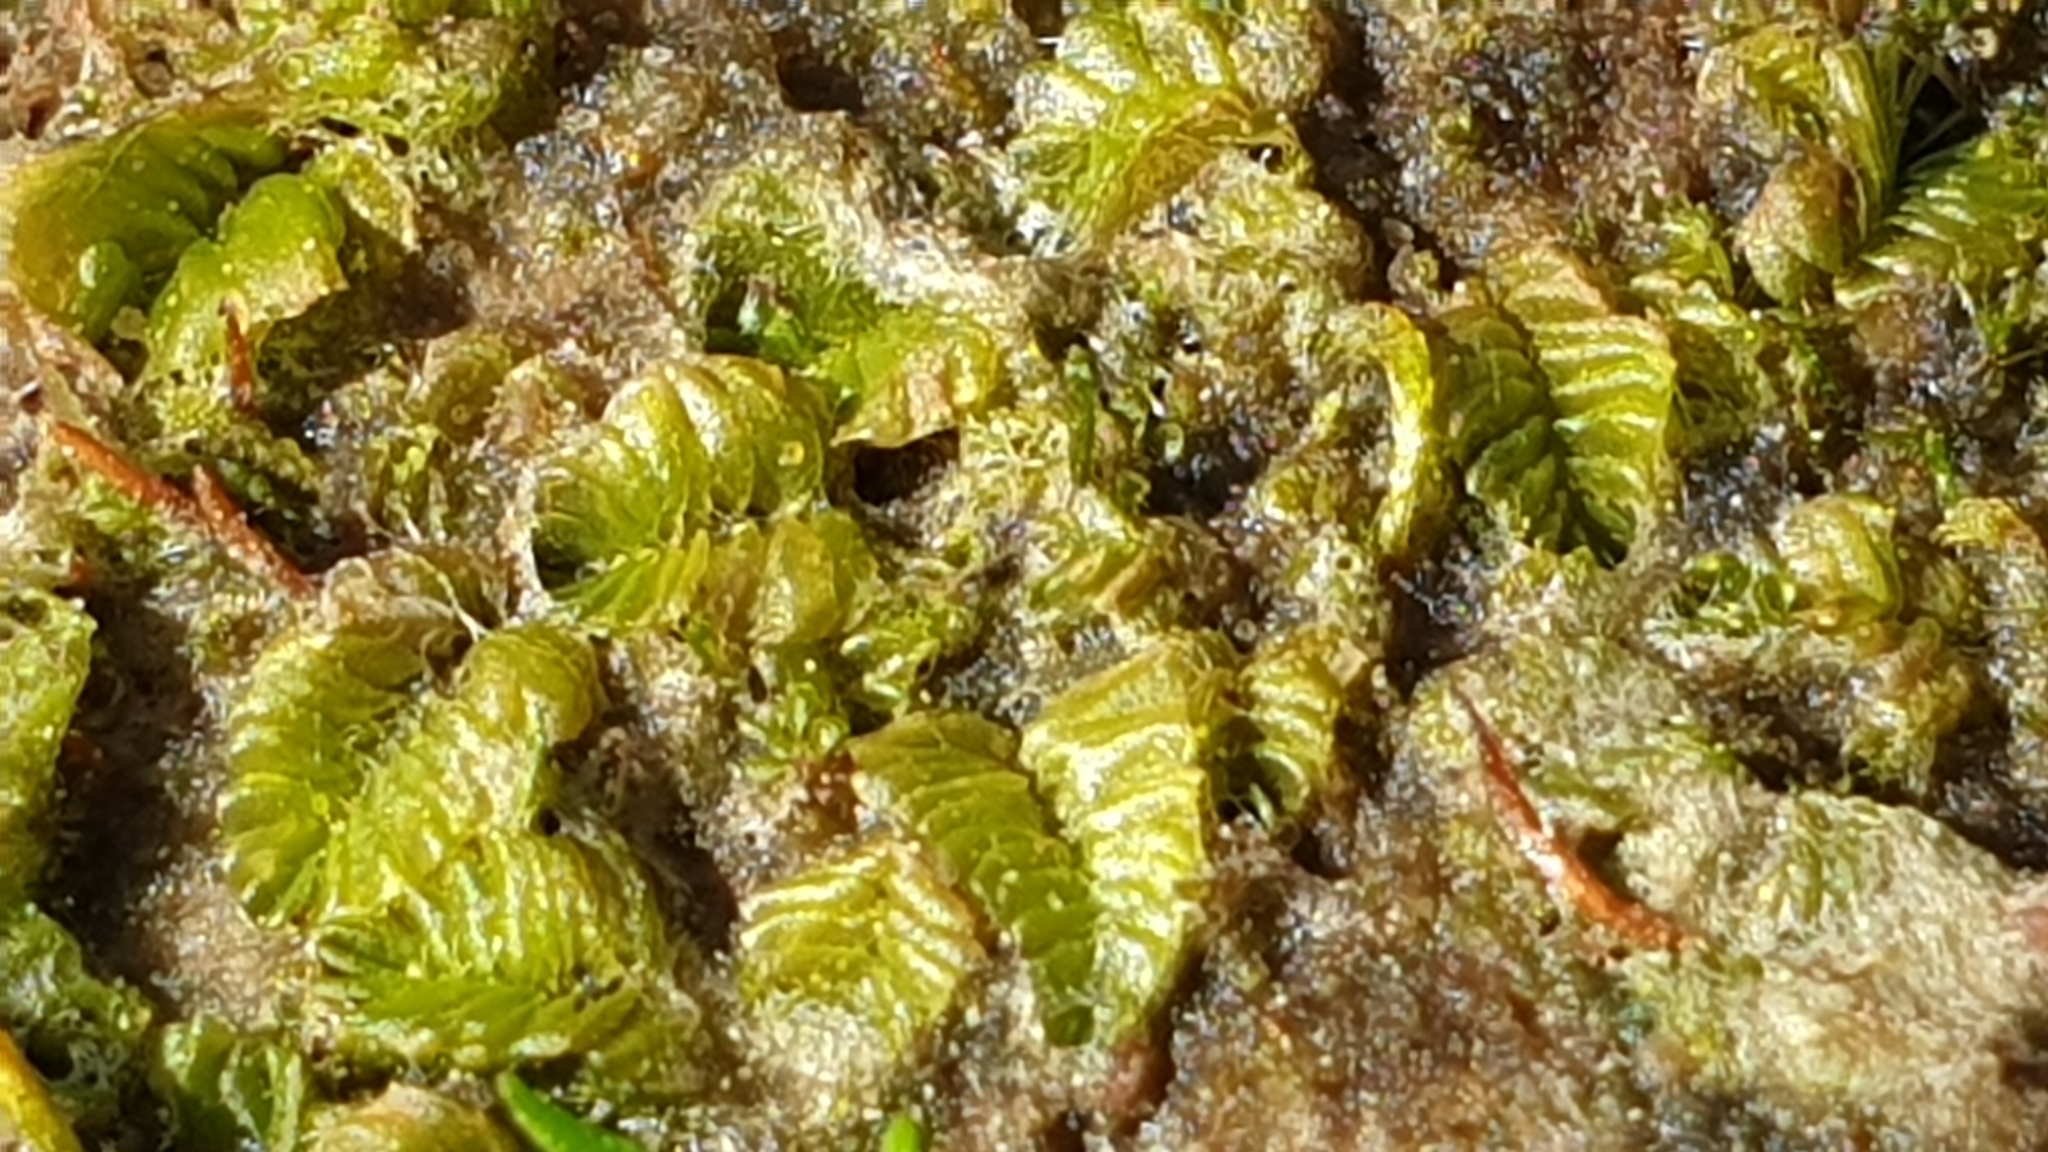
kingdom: Plantae
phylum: Marchantiophyta
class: Jungermanniopsida
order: Jungermanniales
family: Acrobolbaceae
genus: Lethocolea
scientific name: Lethocolea pansa
